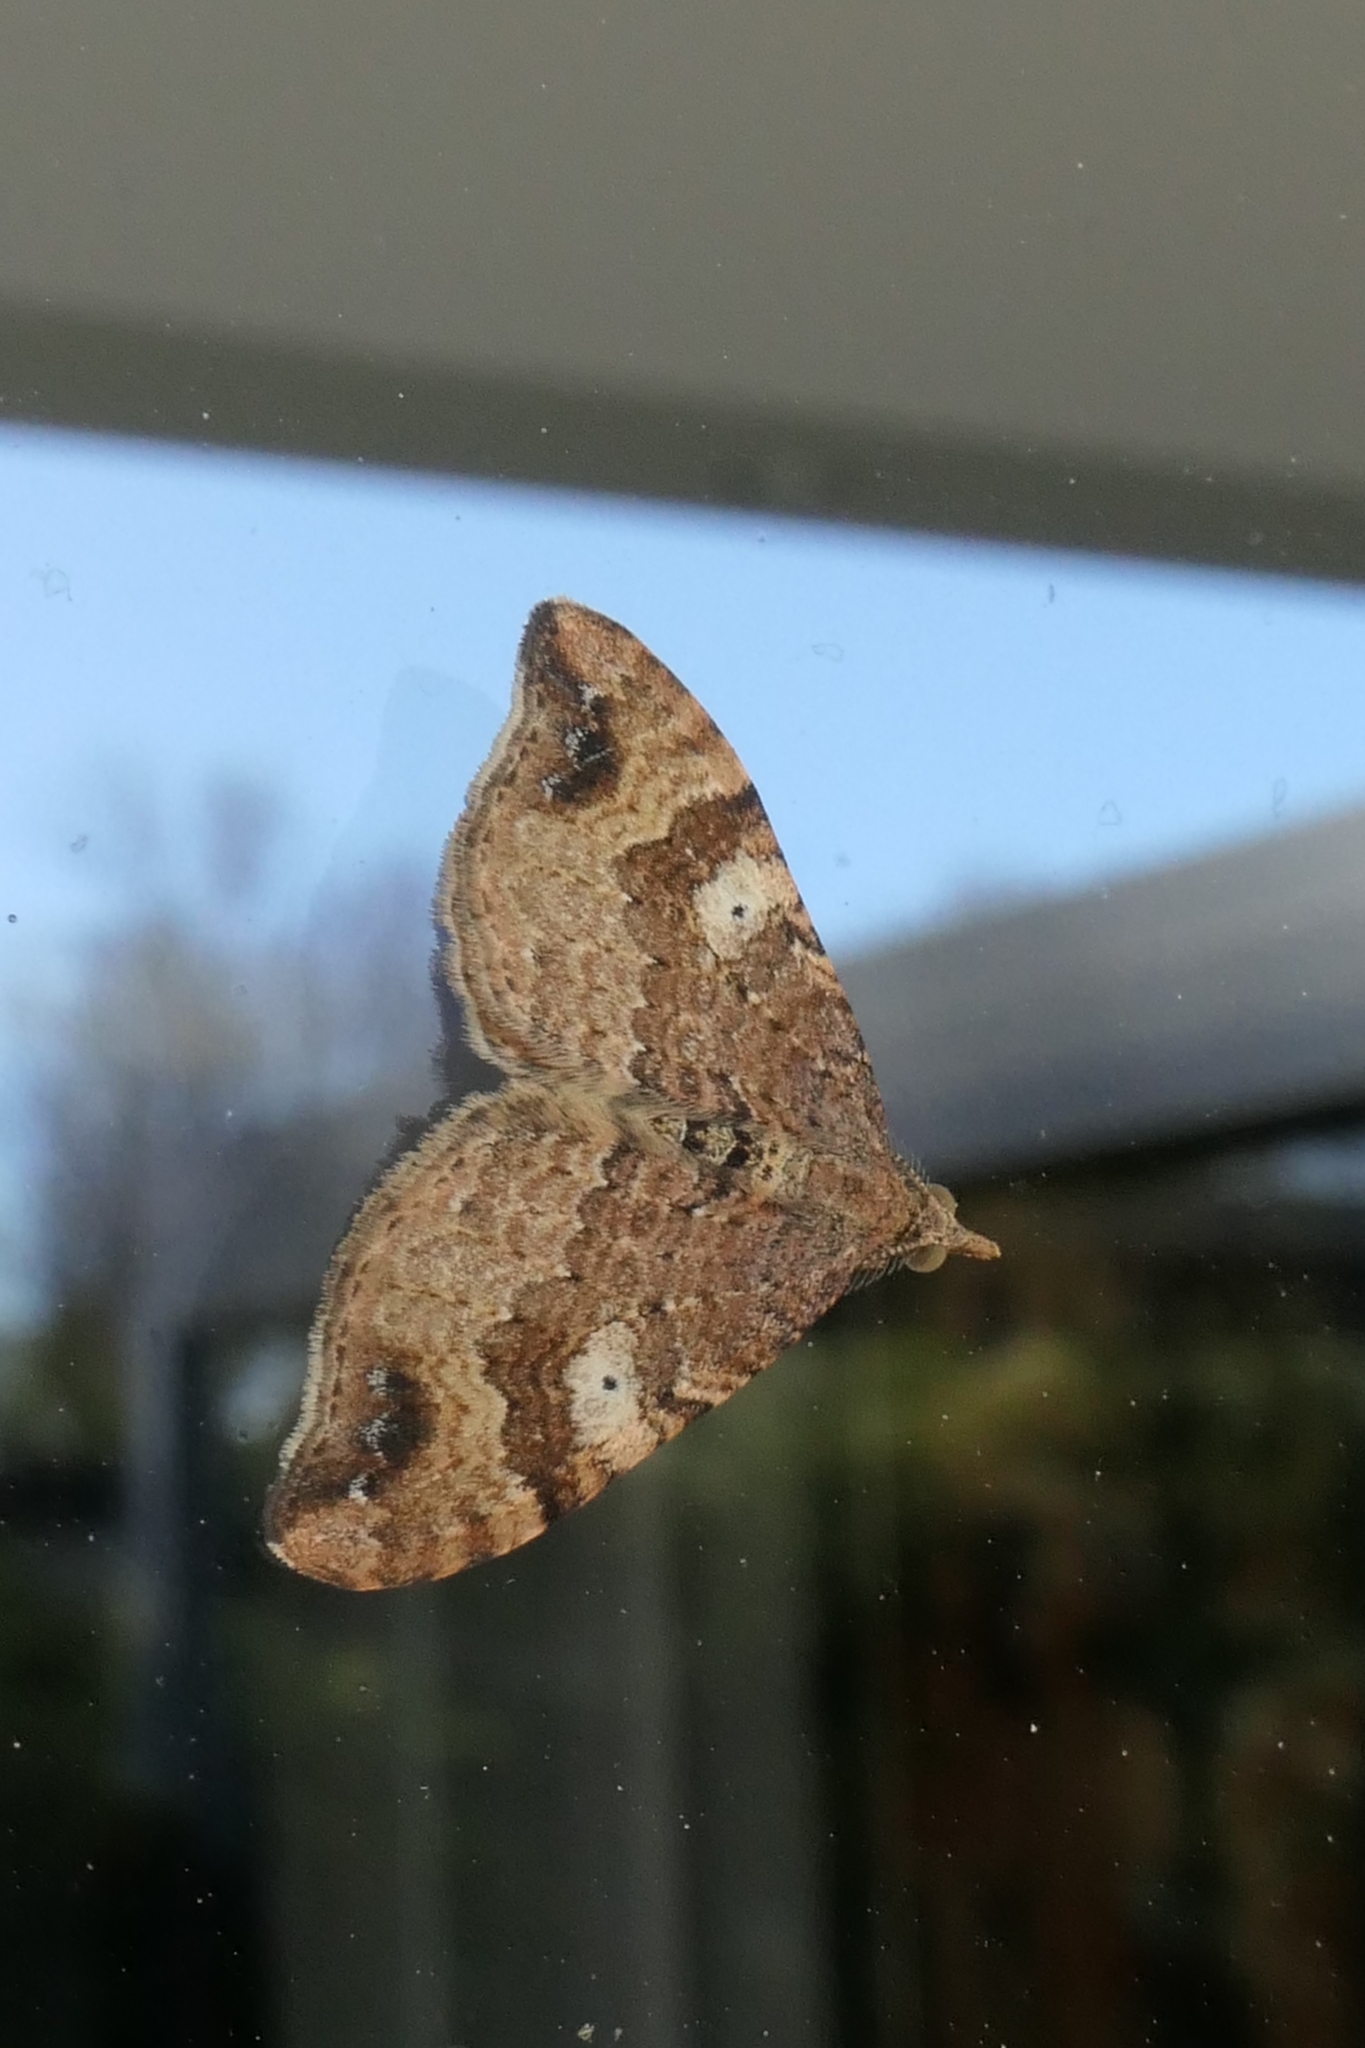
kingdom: Animalia
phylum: Arthropoda
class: Insecta
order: Lepidoptera
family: Geometridae
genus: Homodotis
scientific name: Homodotis megaspilata
